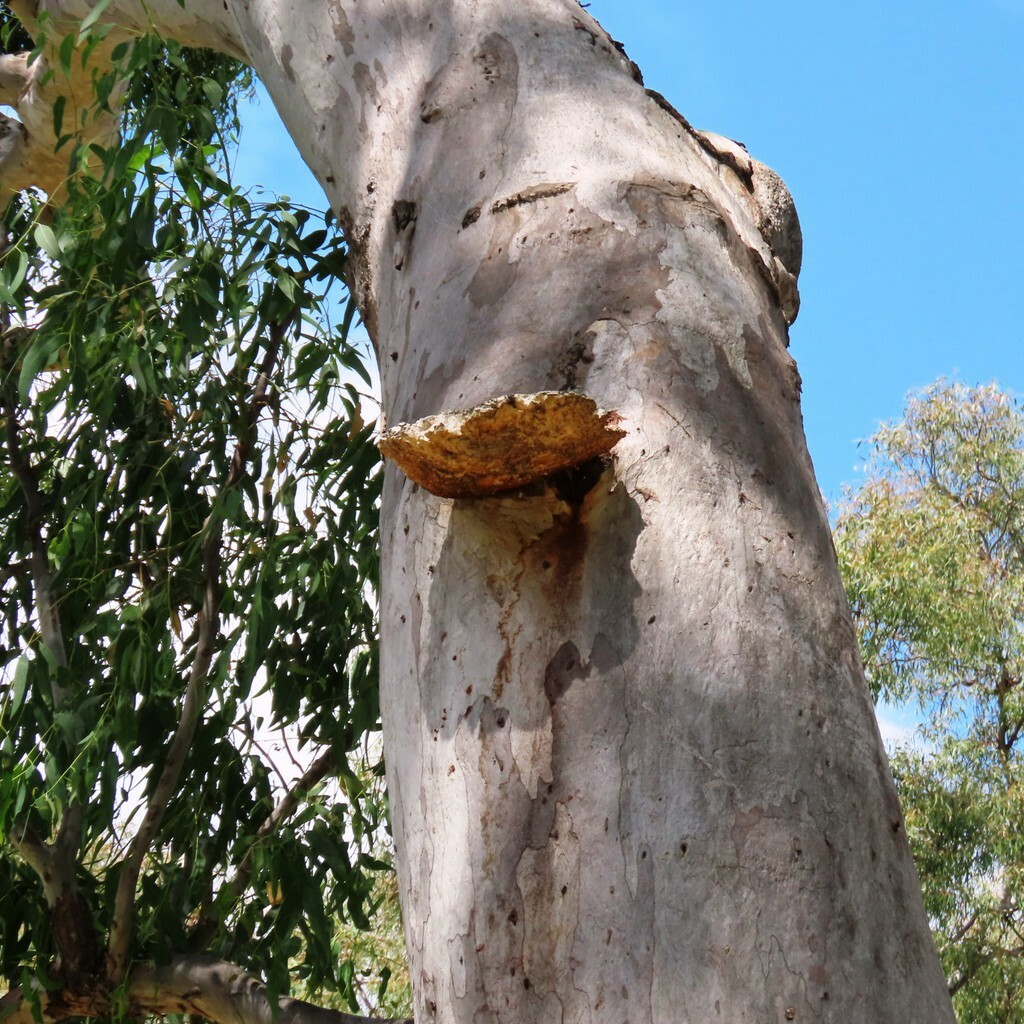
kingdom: Fungi
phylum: Basidiomycota
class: Agaricomycetes
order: Polyporales
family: Laetiporaceae
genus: Laetiporus
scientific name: Laetiporus portentosus
